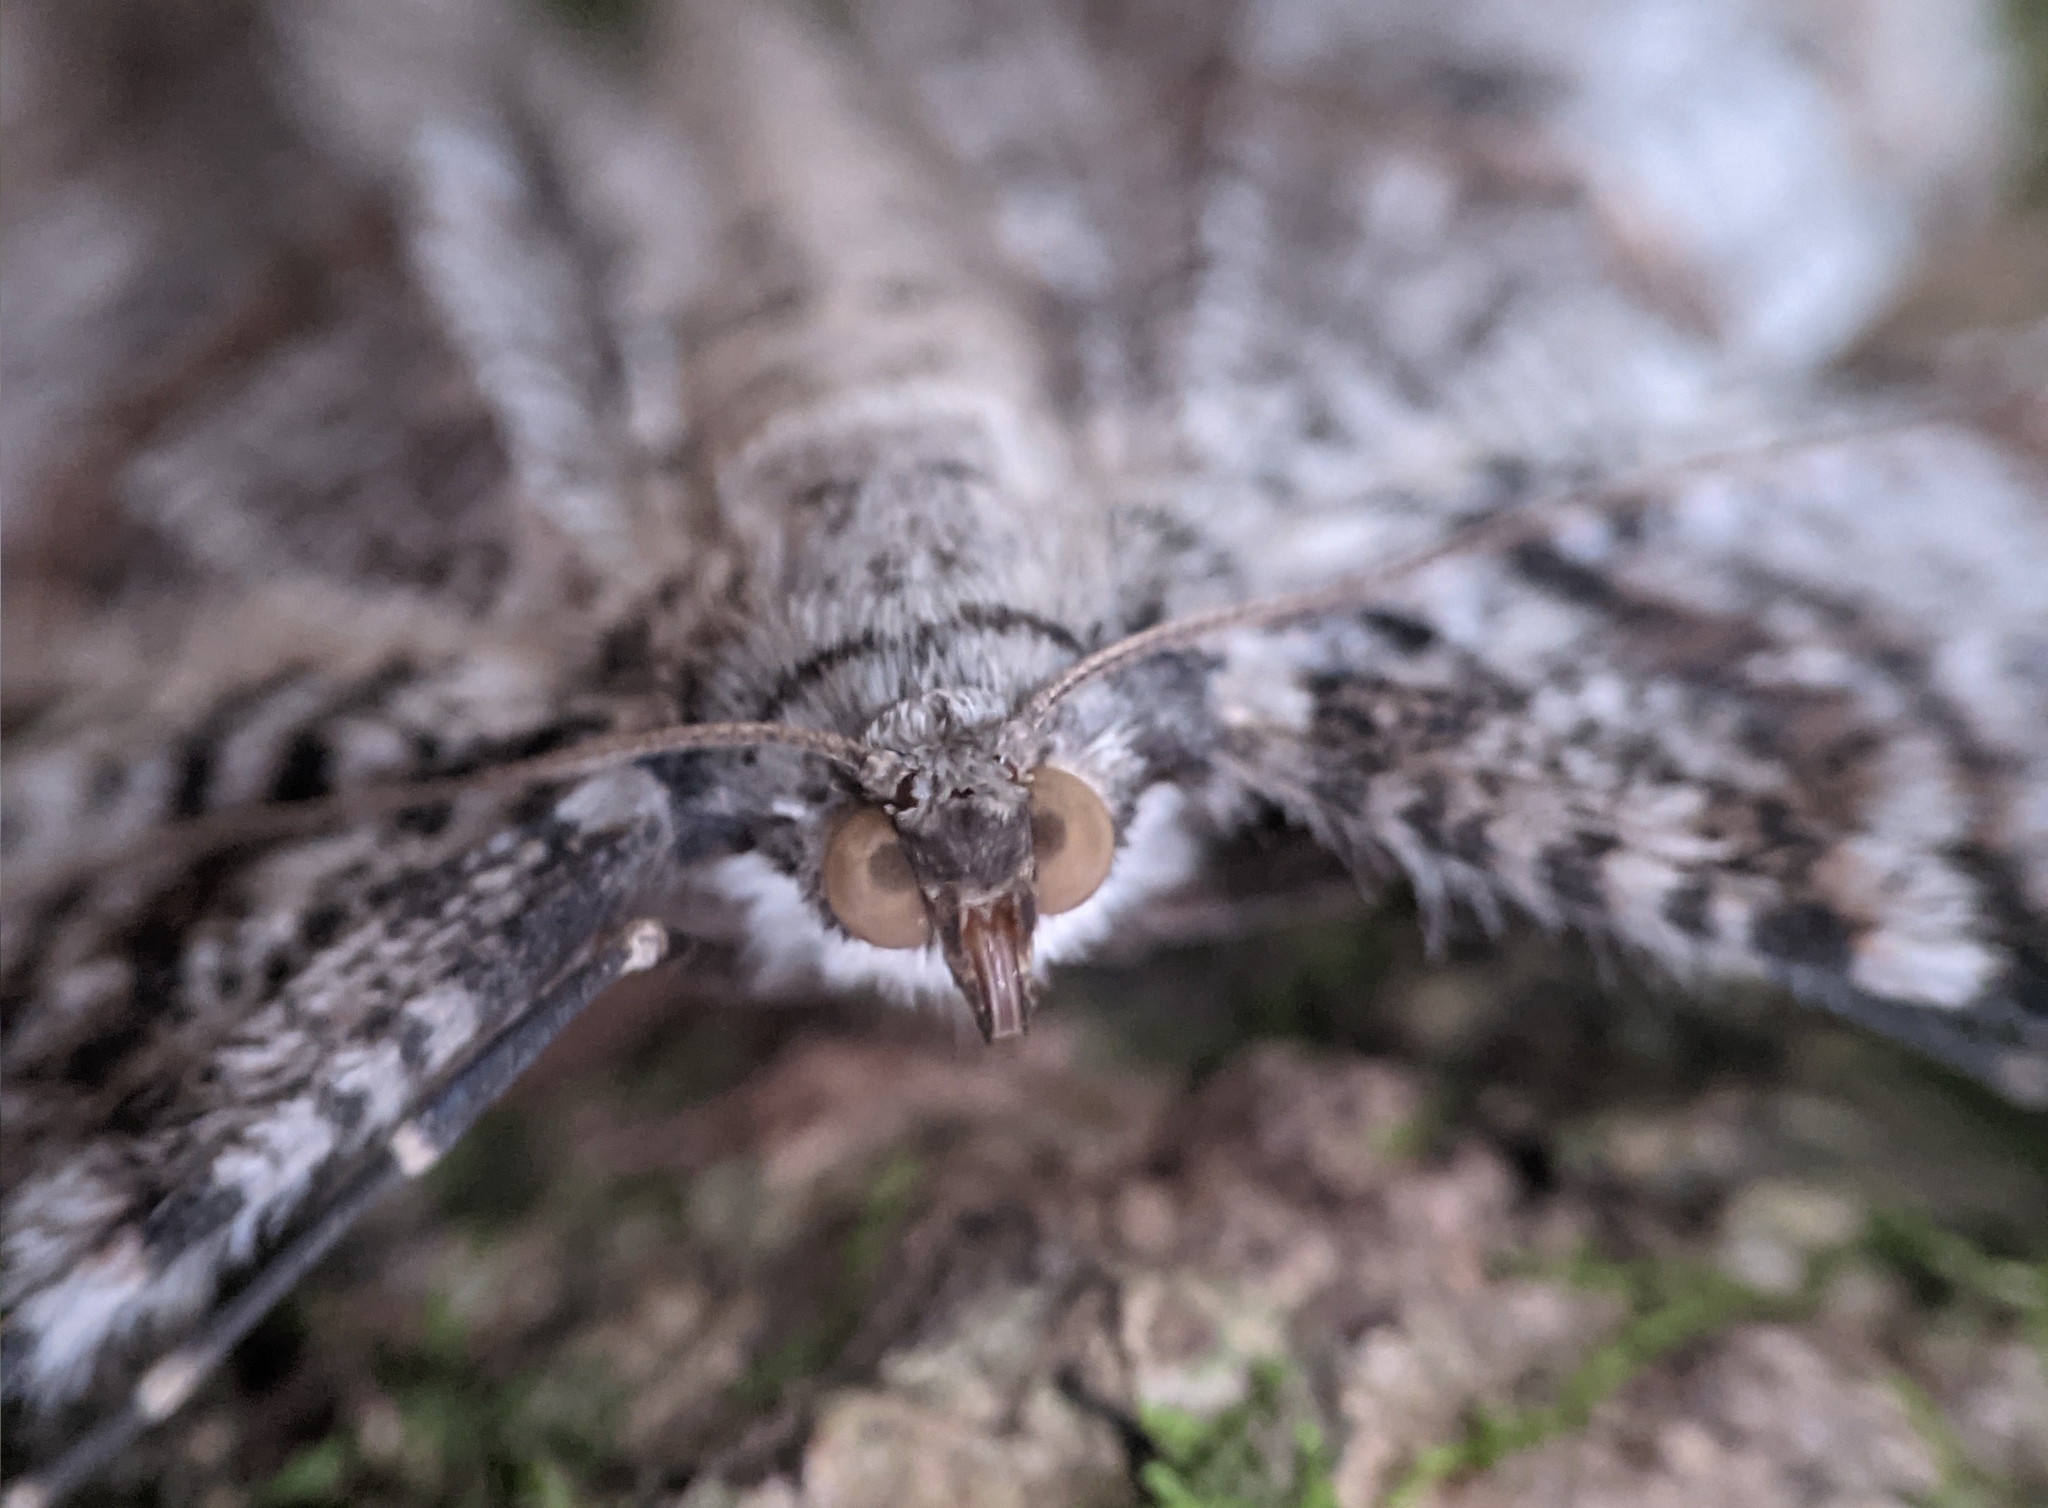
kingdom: Animalia
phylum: Arthropoda
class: Insecta
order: Lepidoptera
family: Geometridae
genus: Epimecis
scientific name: Epimecis hortaria
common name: Tulip-tree beauty
